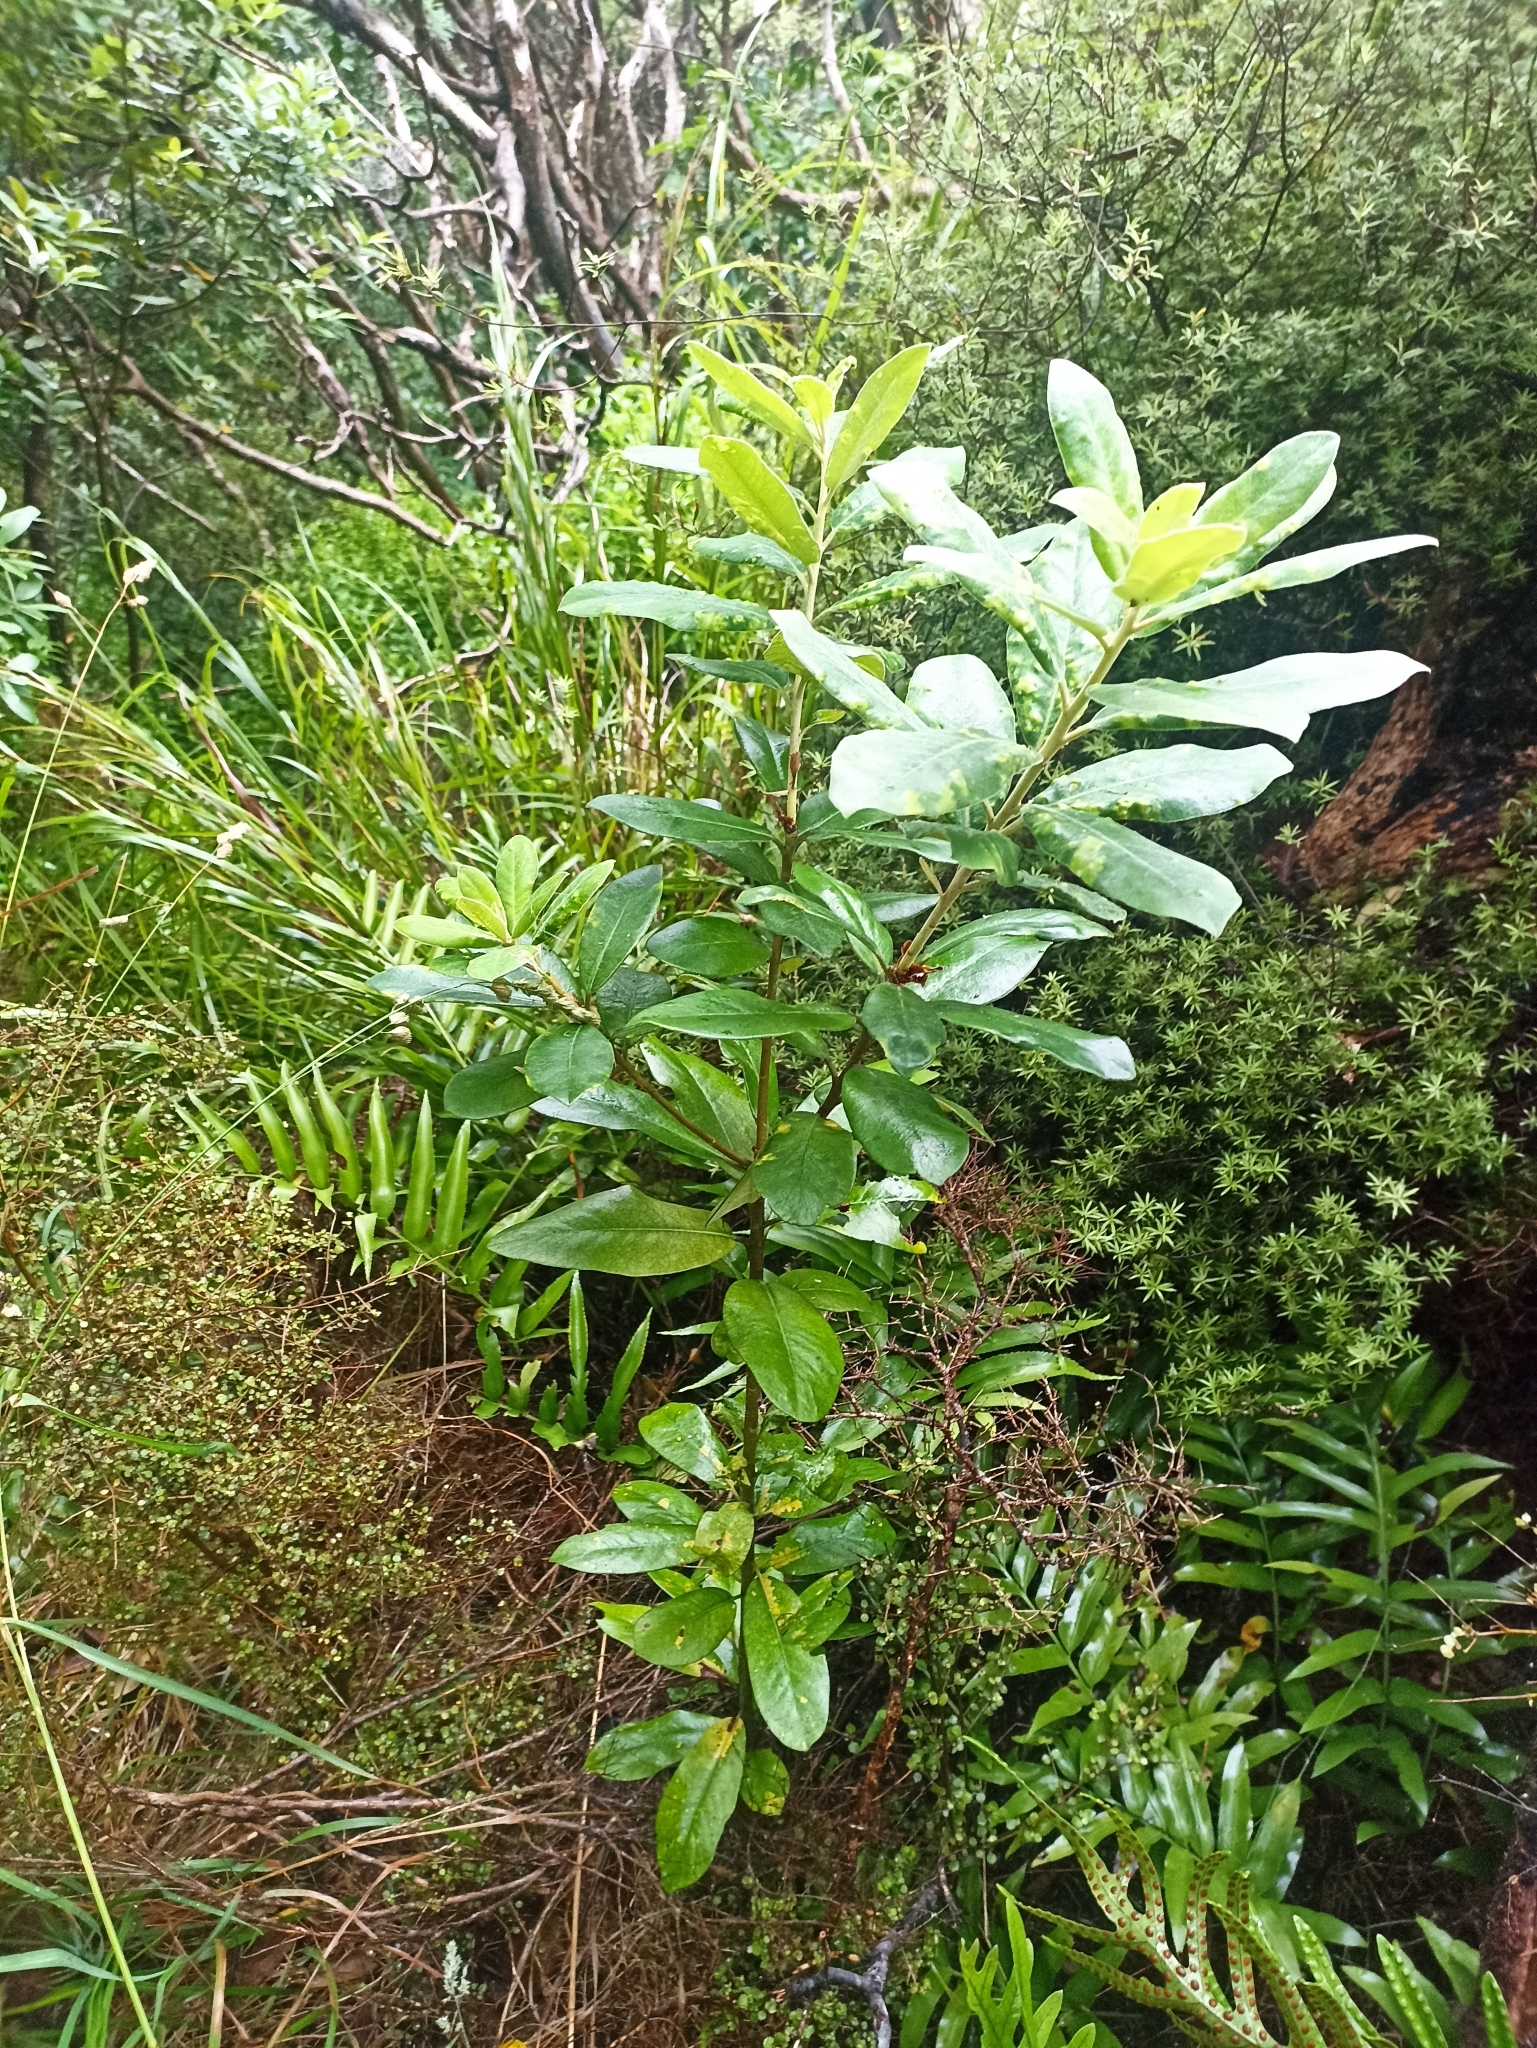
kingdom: Plantae
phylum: Tracheophyta
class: Magnoliopsida
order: Apiales
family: Pittosporaceae
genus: Pittosporum
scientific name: Pittosporum ralphii
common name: Ralph's desertwillow
